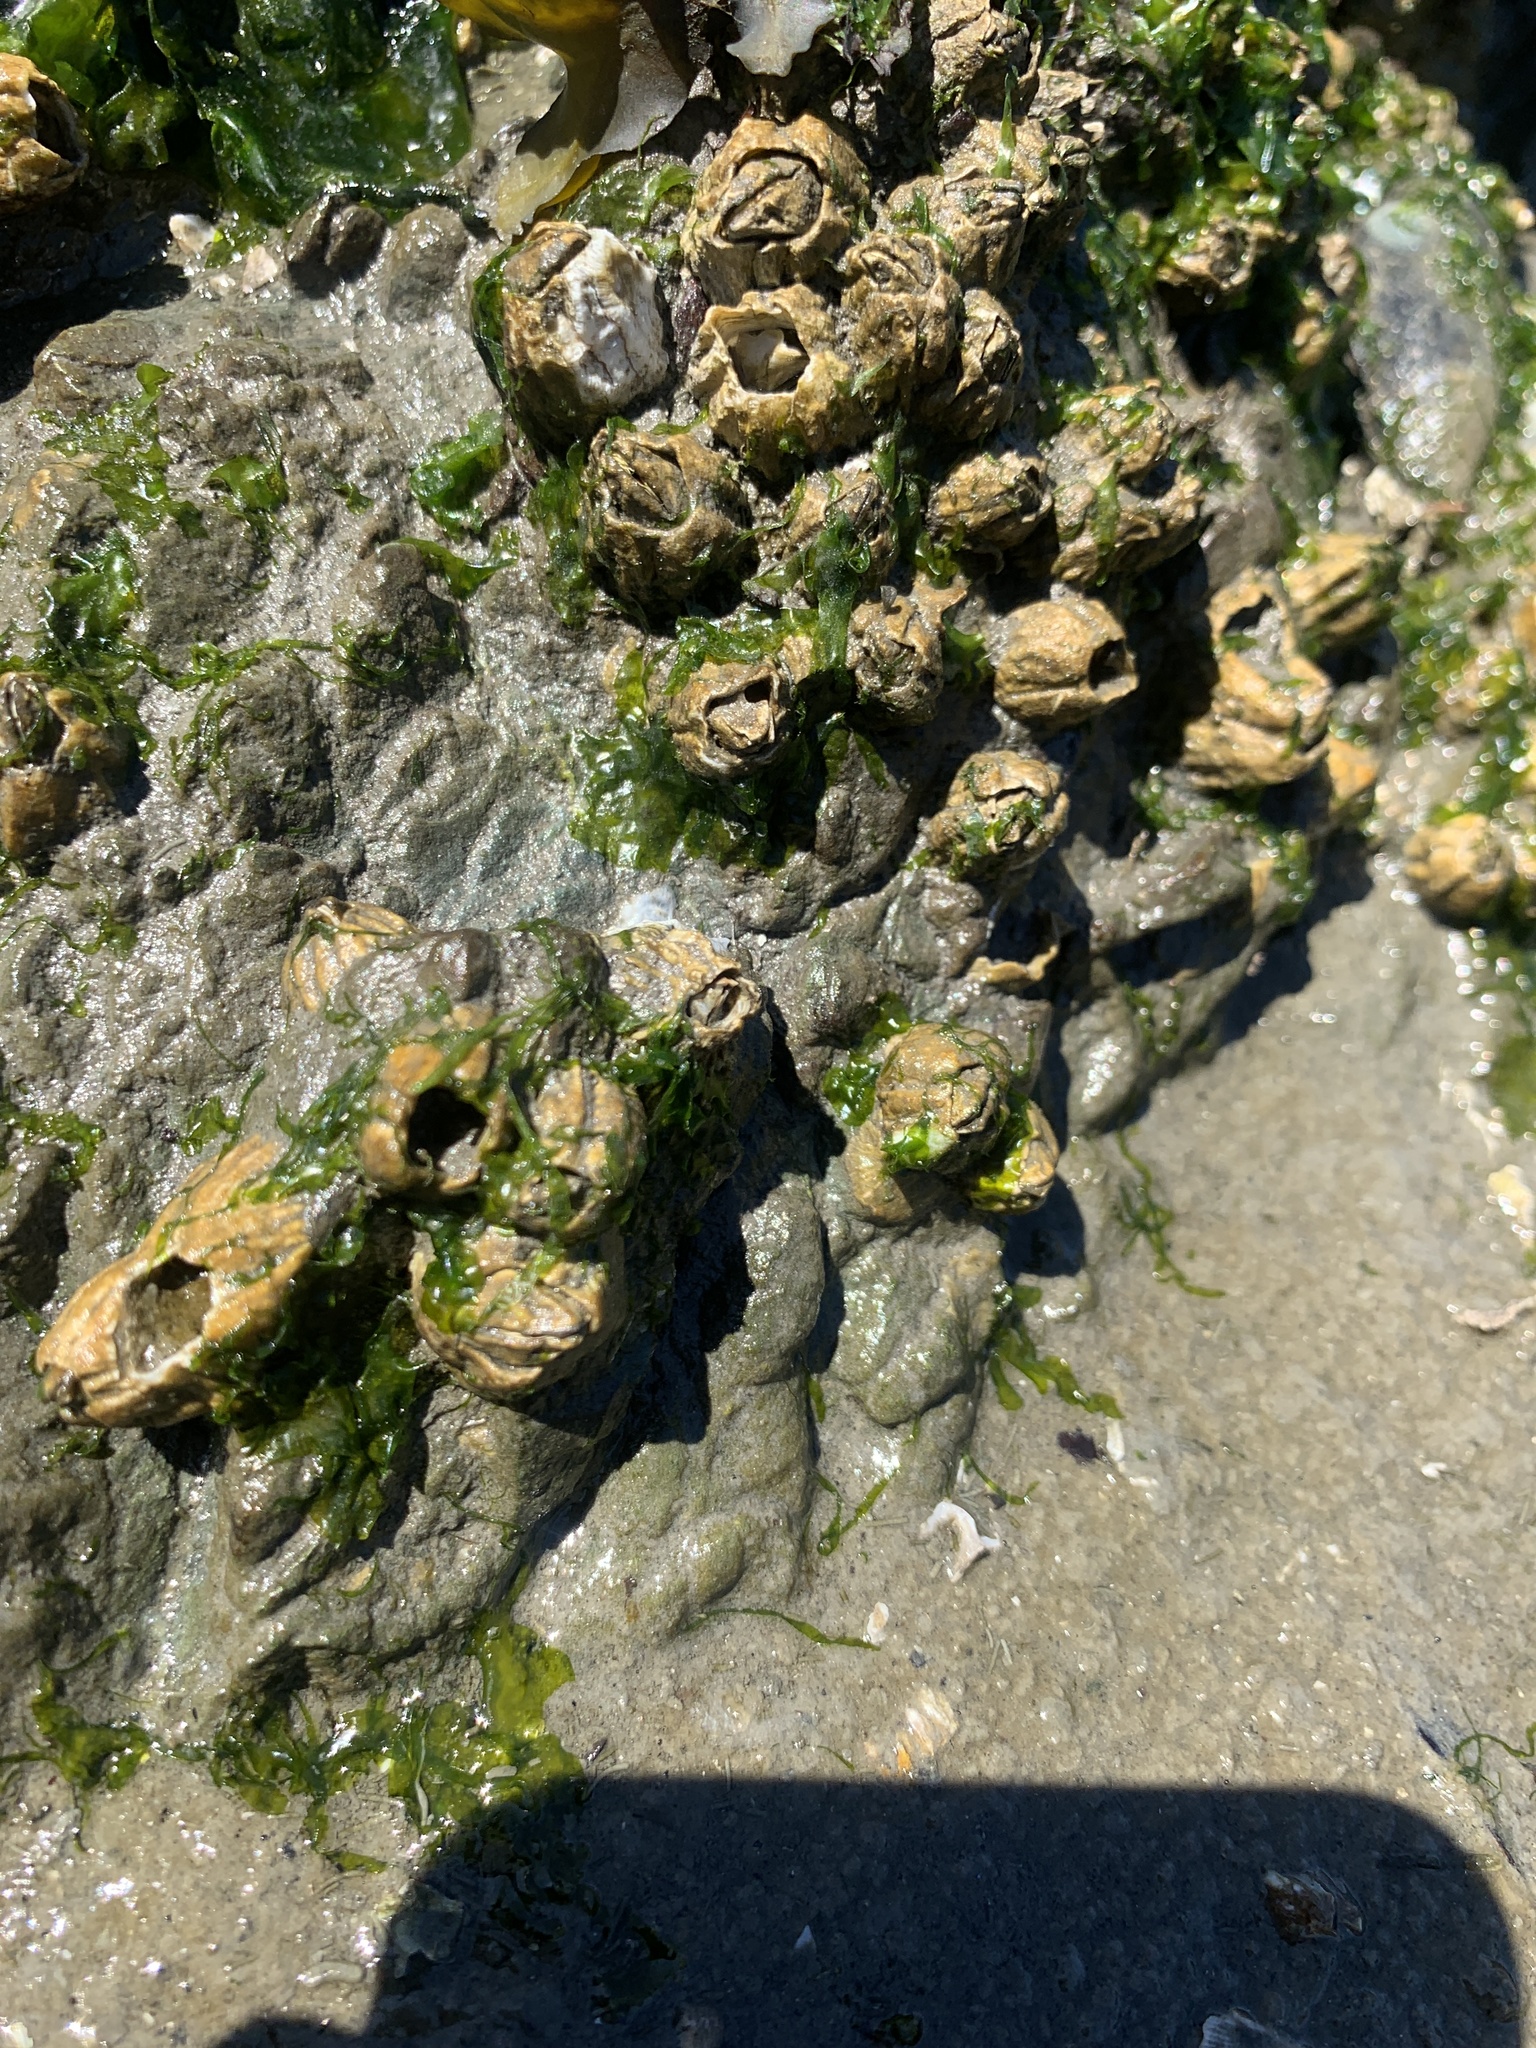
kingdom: Animalia
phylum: Arthropoda
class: Maxillopoda
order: Sessilia
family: Balanidae
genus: Balanus
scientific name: Balanus glandula
